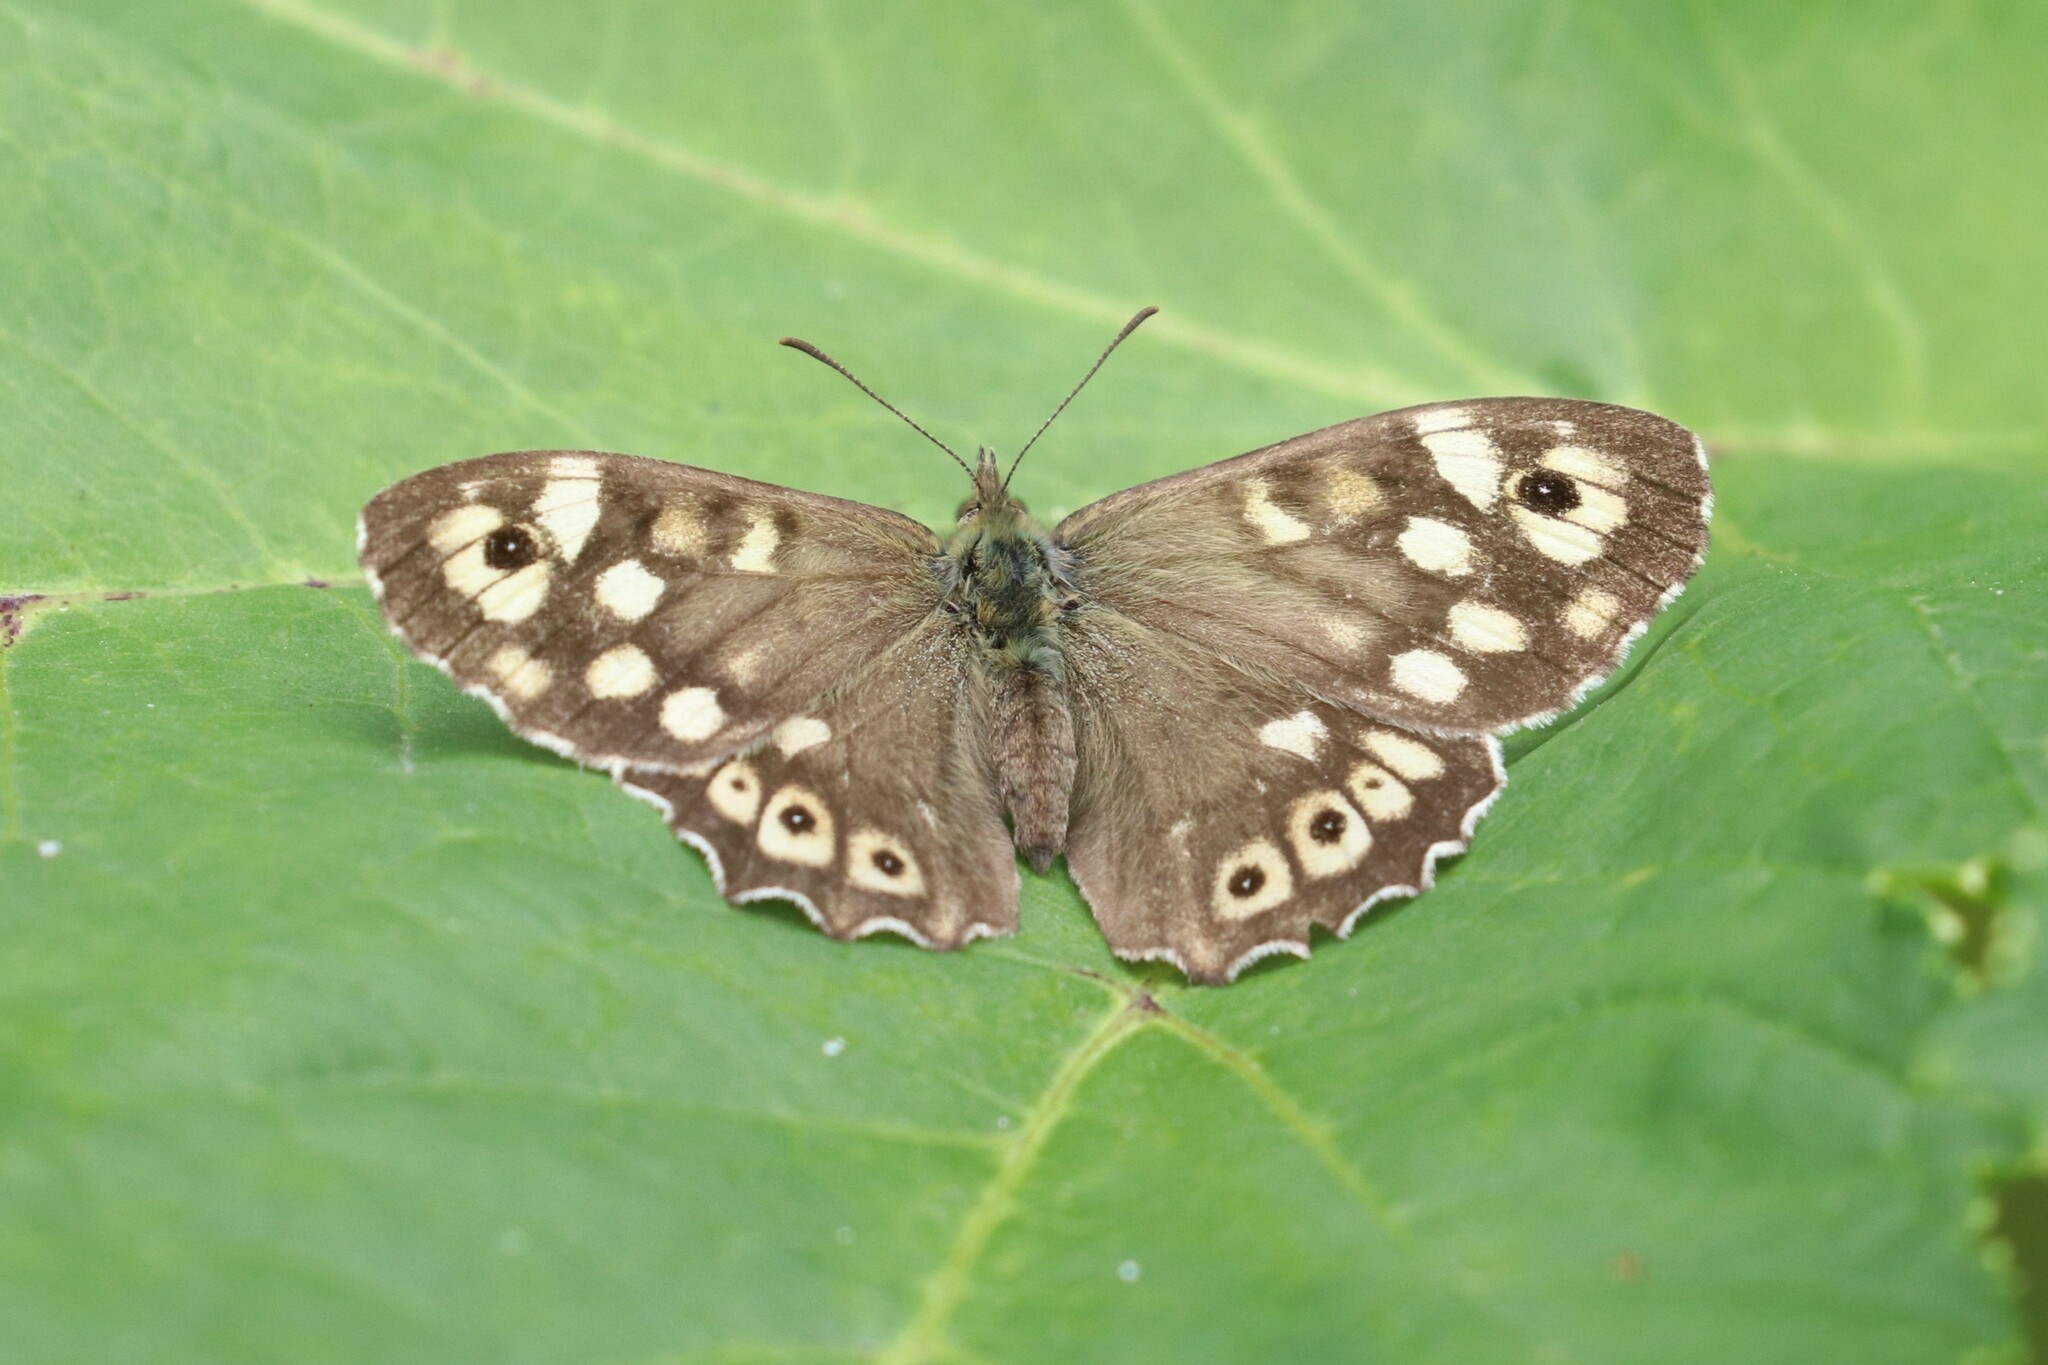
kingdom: Animalia
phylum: Arthropoda
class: Insecta
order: Lepidoptera
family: Nymphalidae
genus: Pararge
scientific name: Pararge aegeria
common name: Speckled wood
